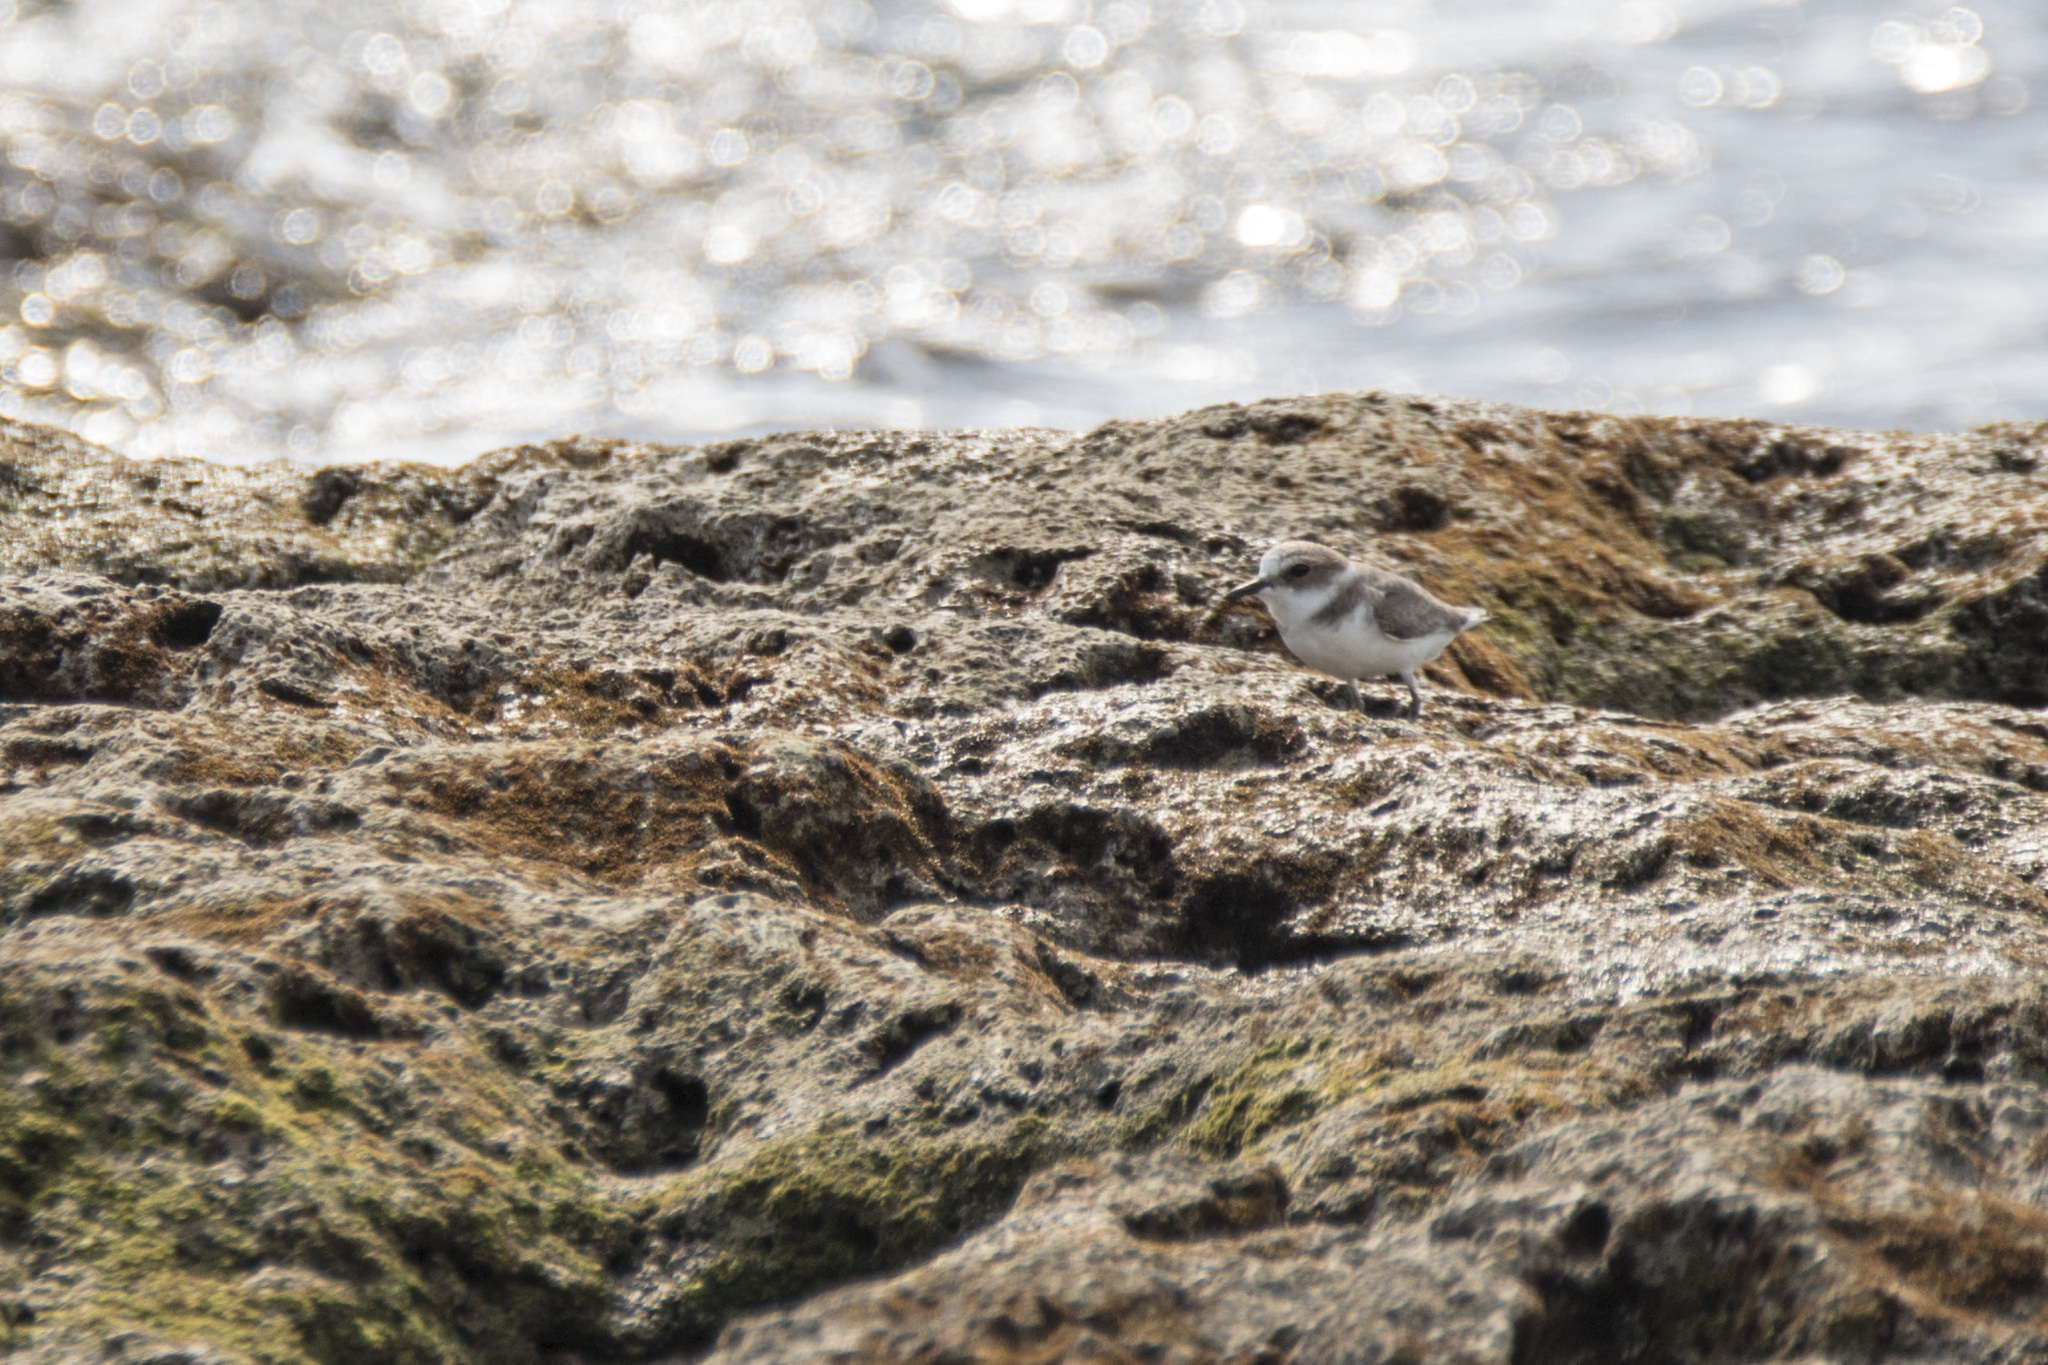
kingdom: Animalia
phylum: Chordata
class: Aves
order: Charadriiformes
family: Charadriidae
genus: Charadrius
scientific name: Charadrius alexandrinus
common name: Kentish plover
